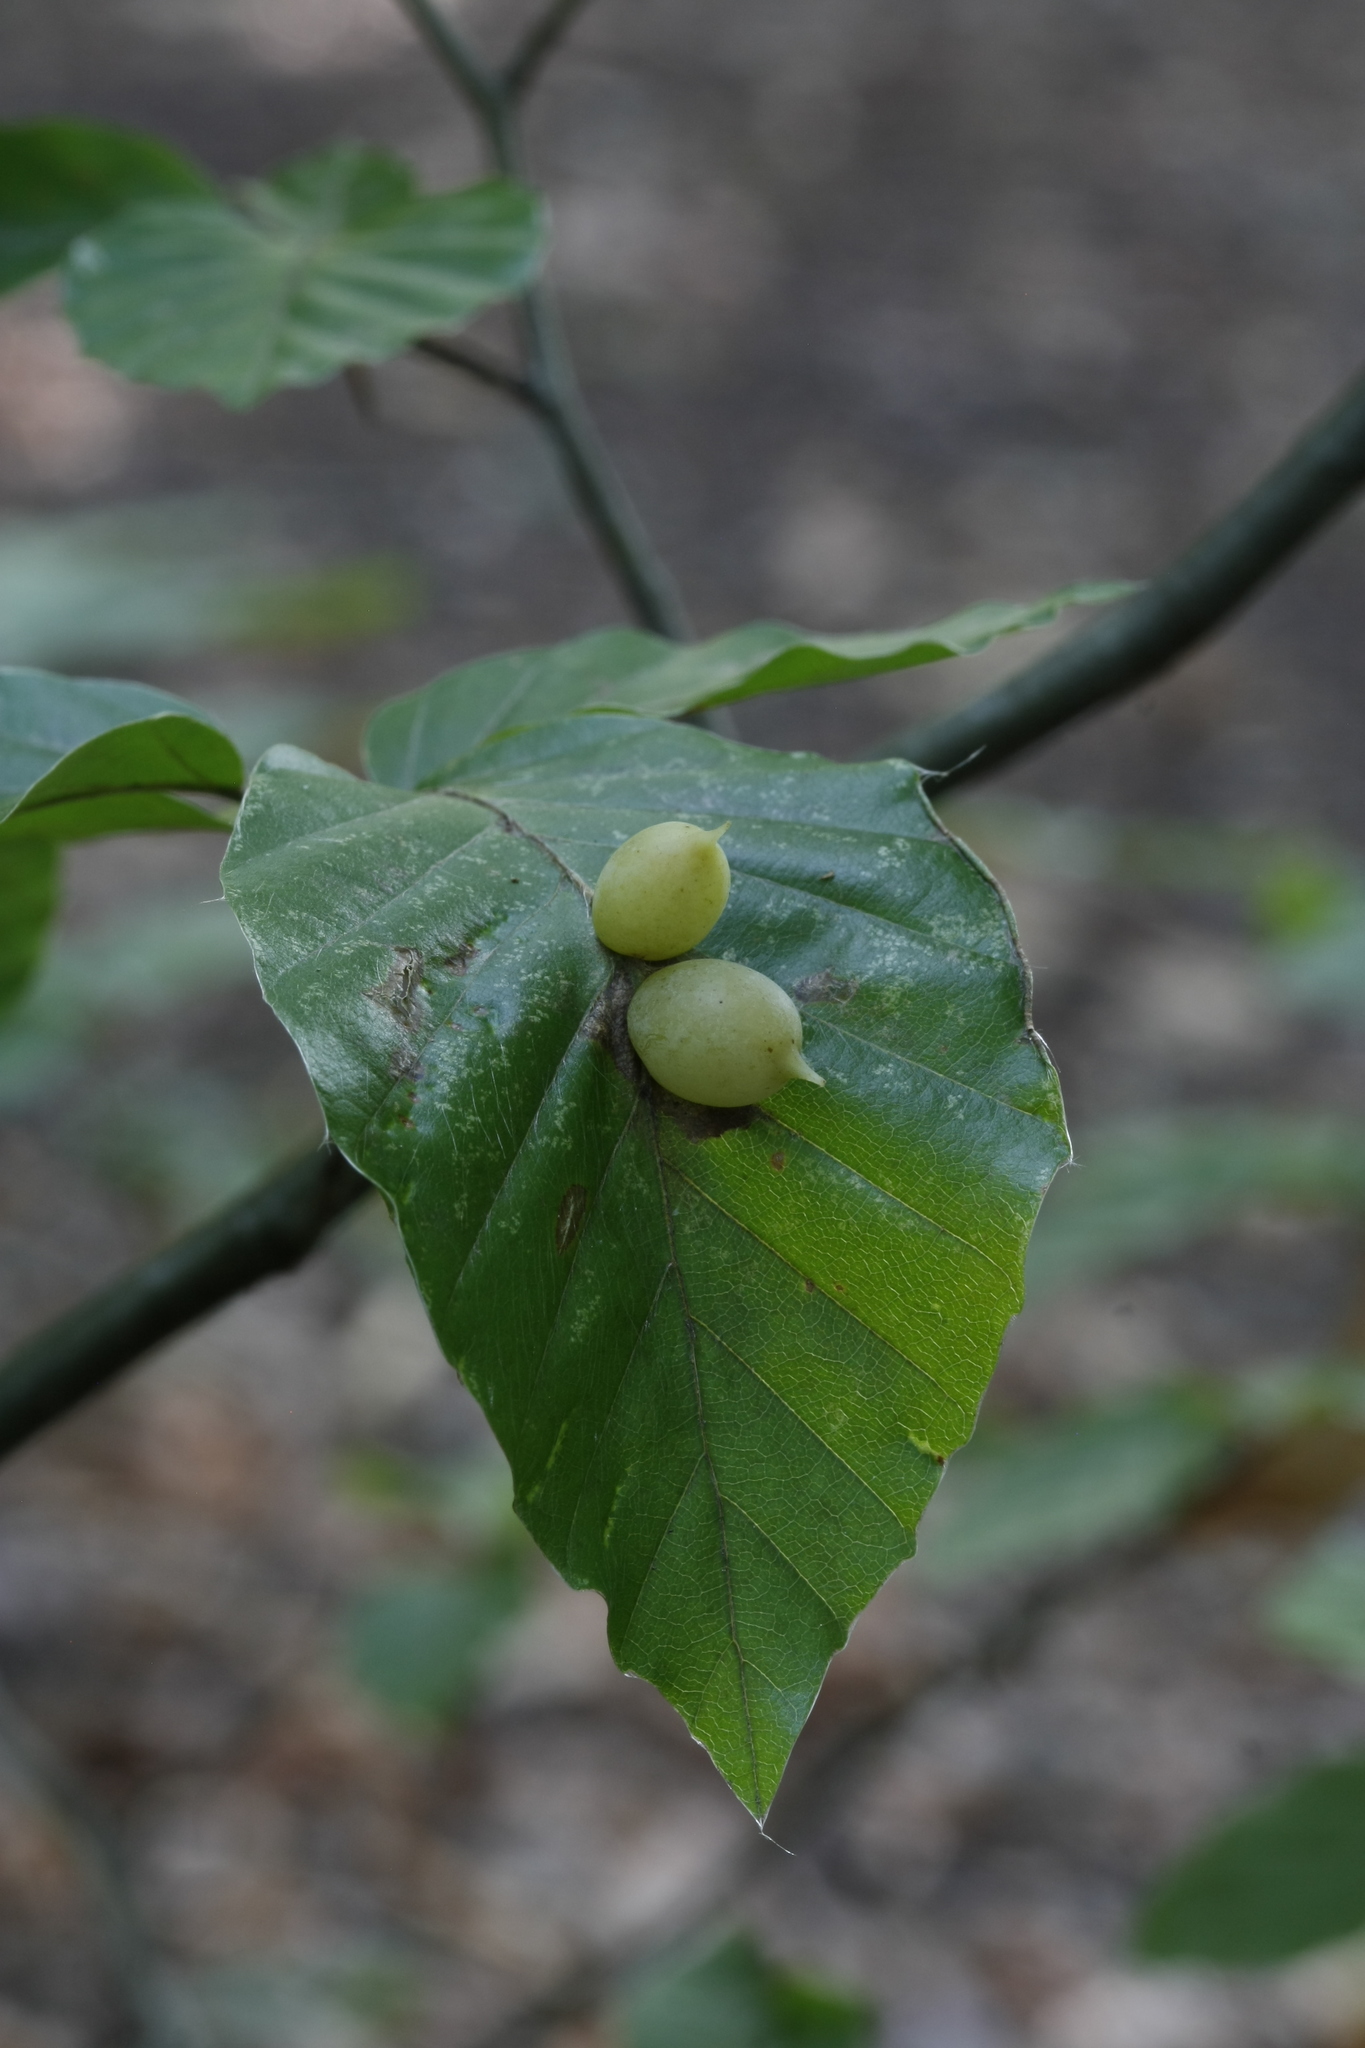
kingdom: Animalia
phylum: Arthropoda
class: Insecta
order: Diptera
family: Cecidomyiidae
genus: Mikiola
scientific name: Mikiola fagi
